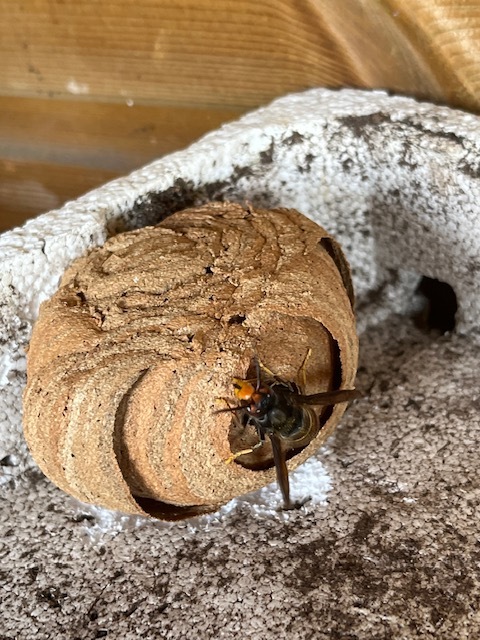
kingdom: Animalia
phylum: Arthropoda
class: Insecta
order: Hymenoptera
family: Vespidae
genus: Vespa
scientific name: Vespa velutina
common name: Asian hornet
